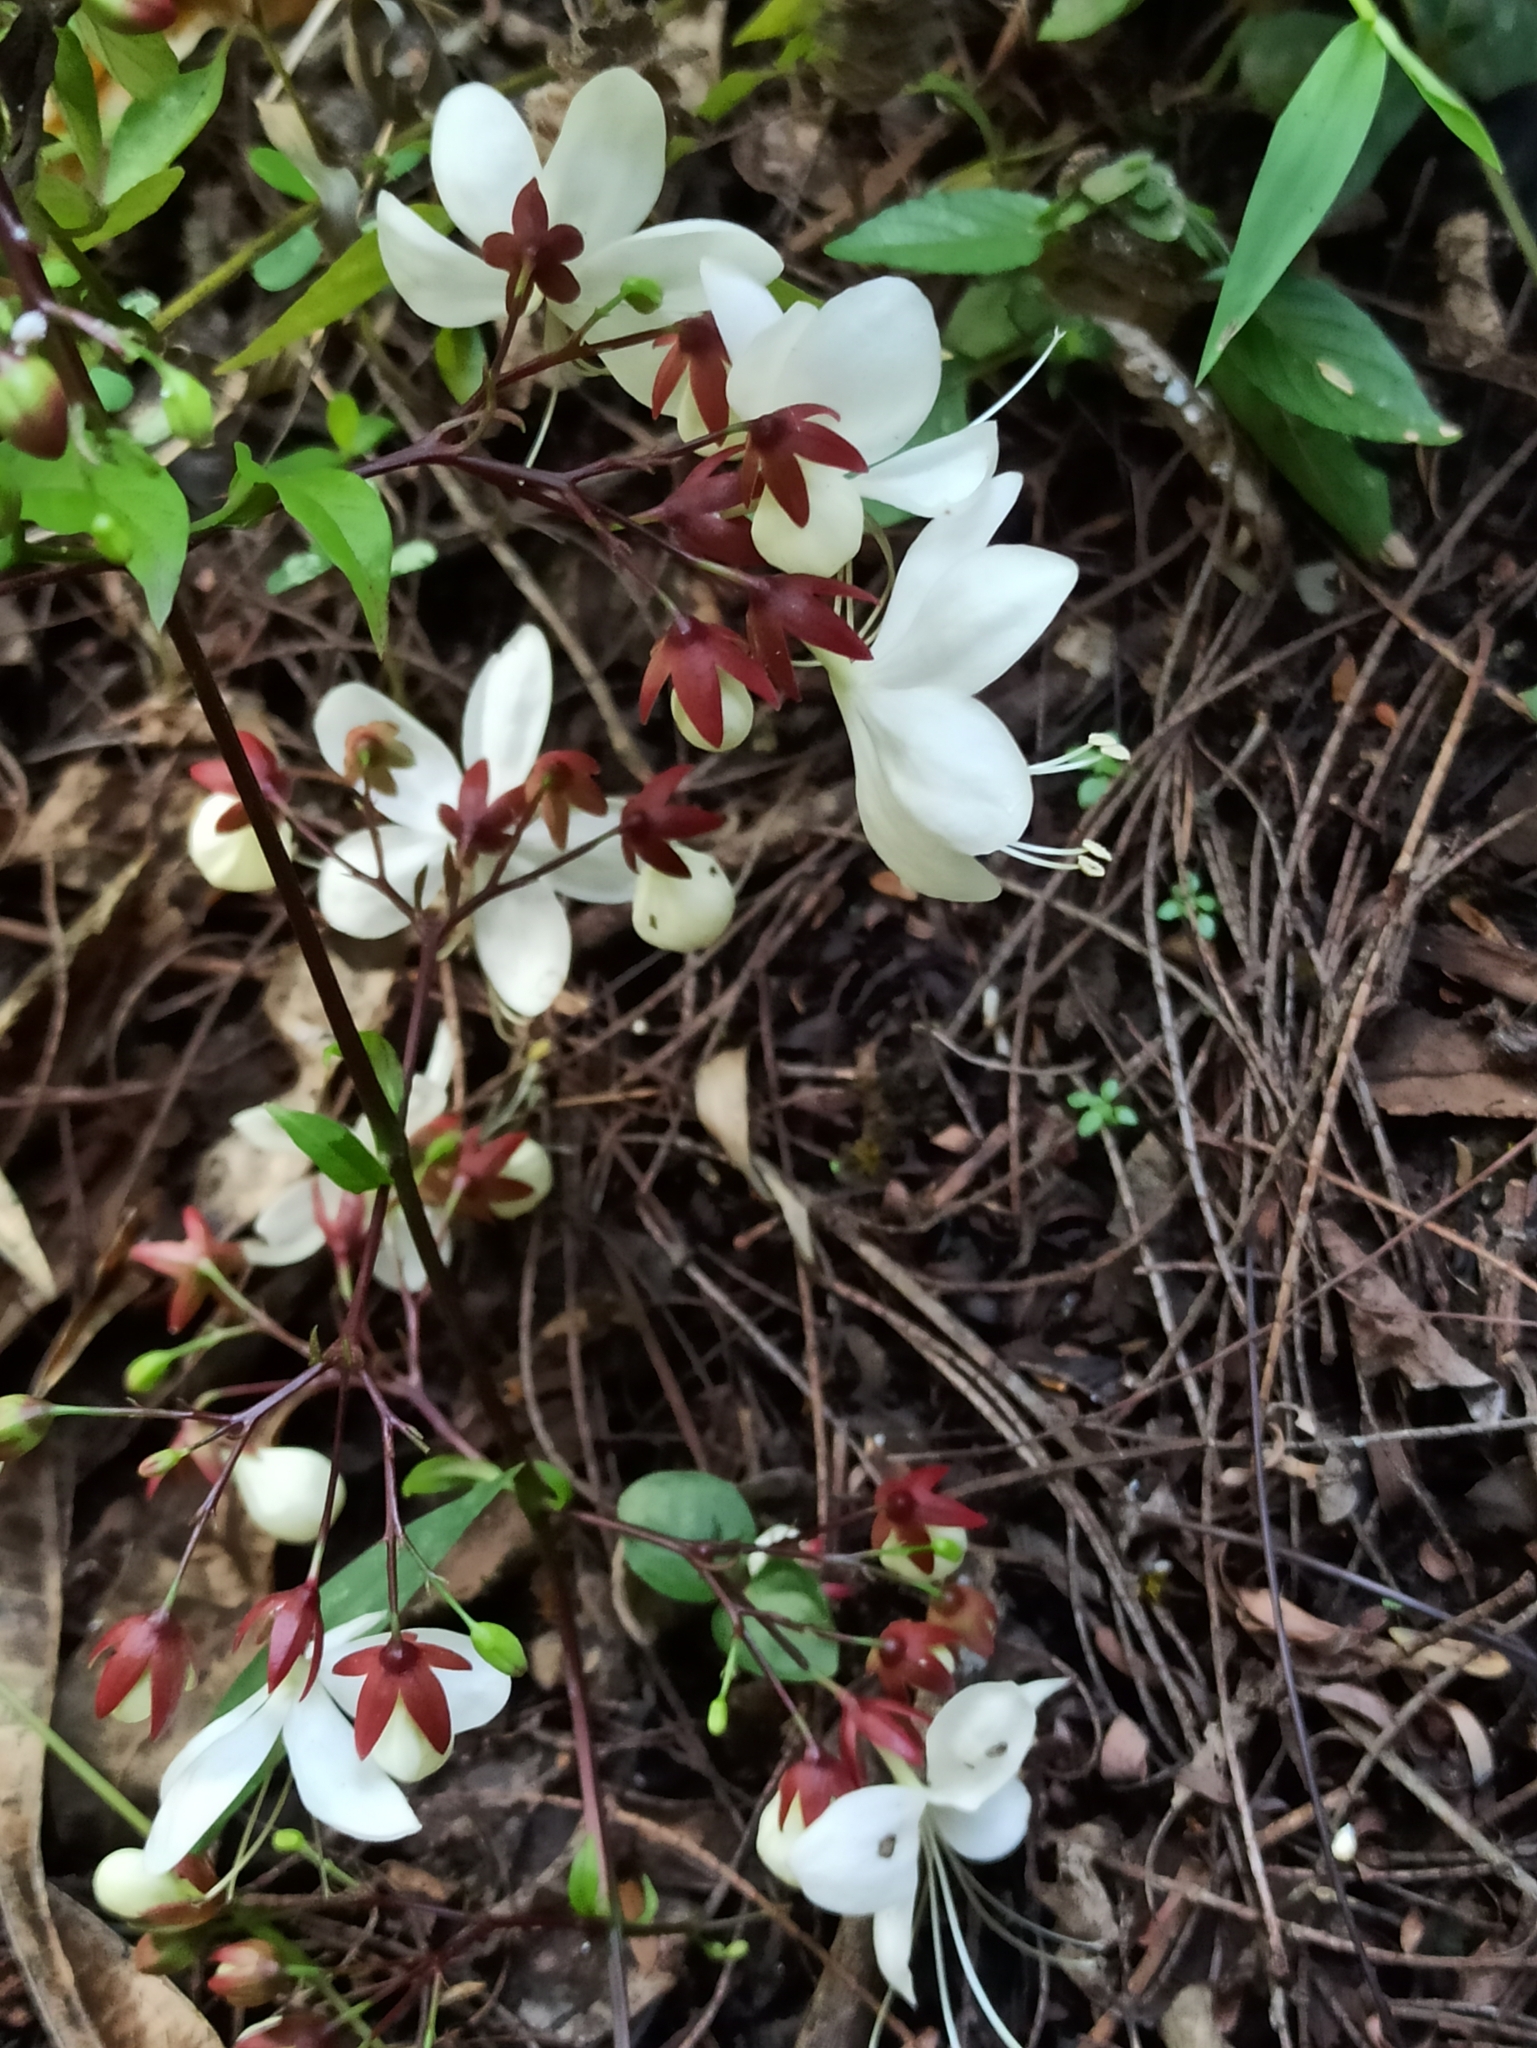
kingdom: Plantae
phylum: Tracheophyta
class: Magnoliopsida
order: Lamiales
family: Lamiaceae
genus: Clerodendrum
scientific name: Clerodendrum laevifolium
